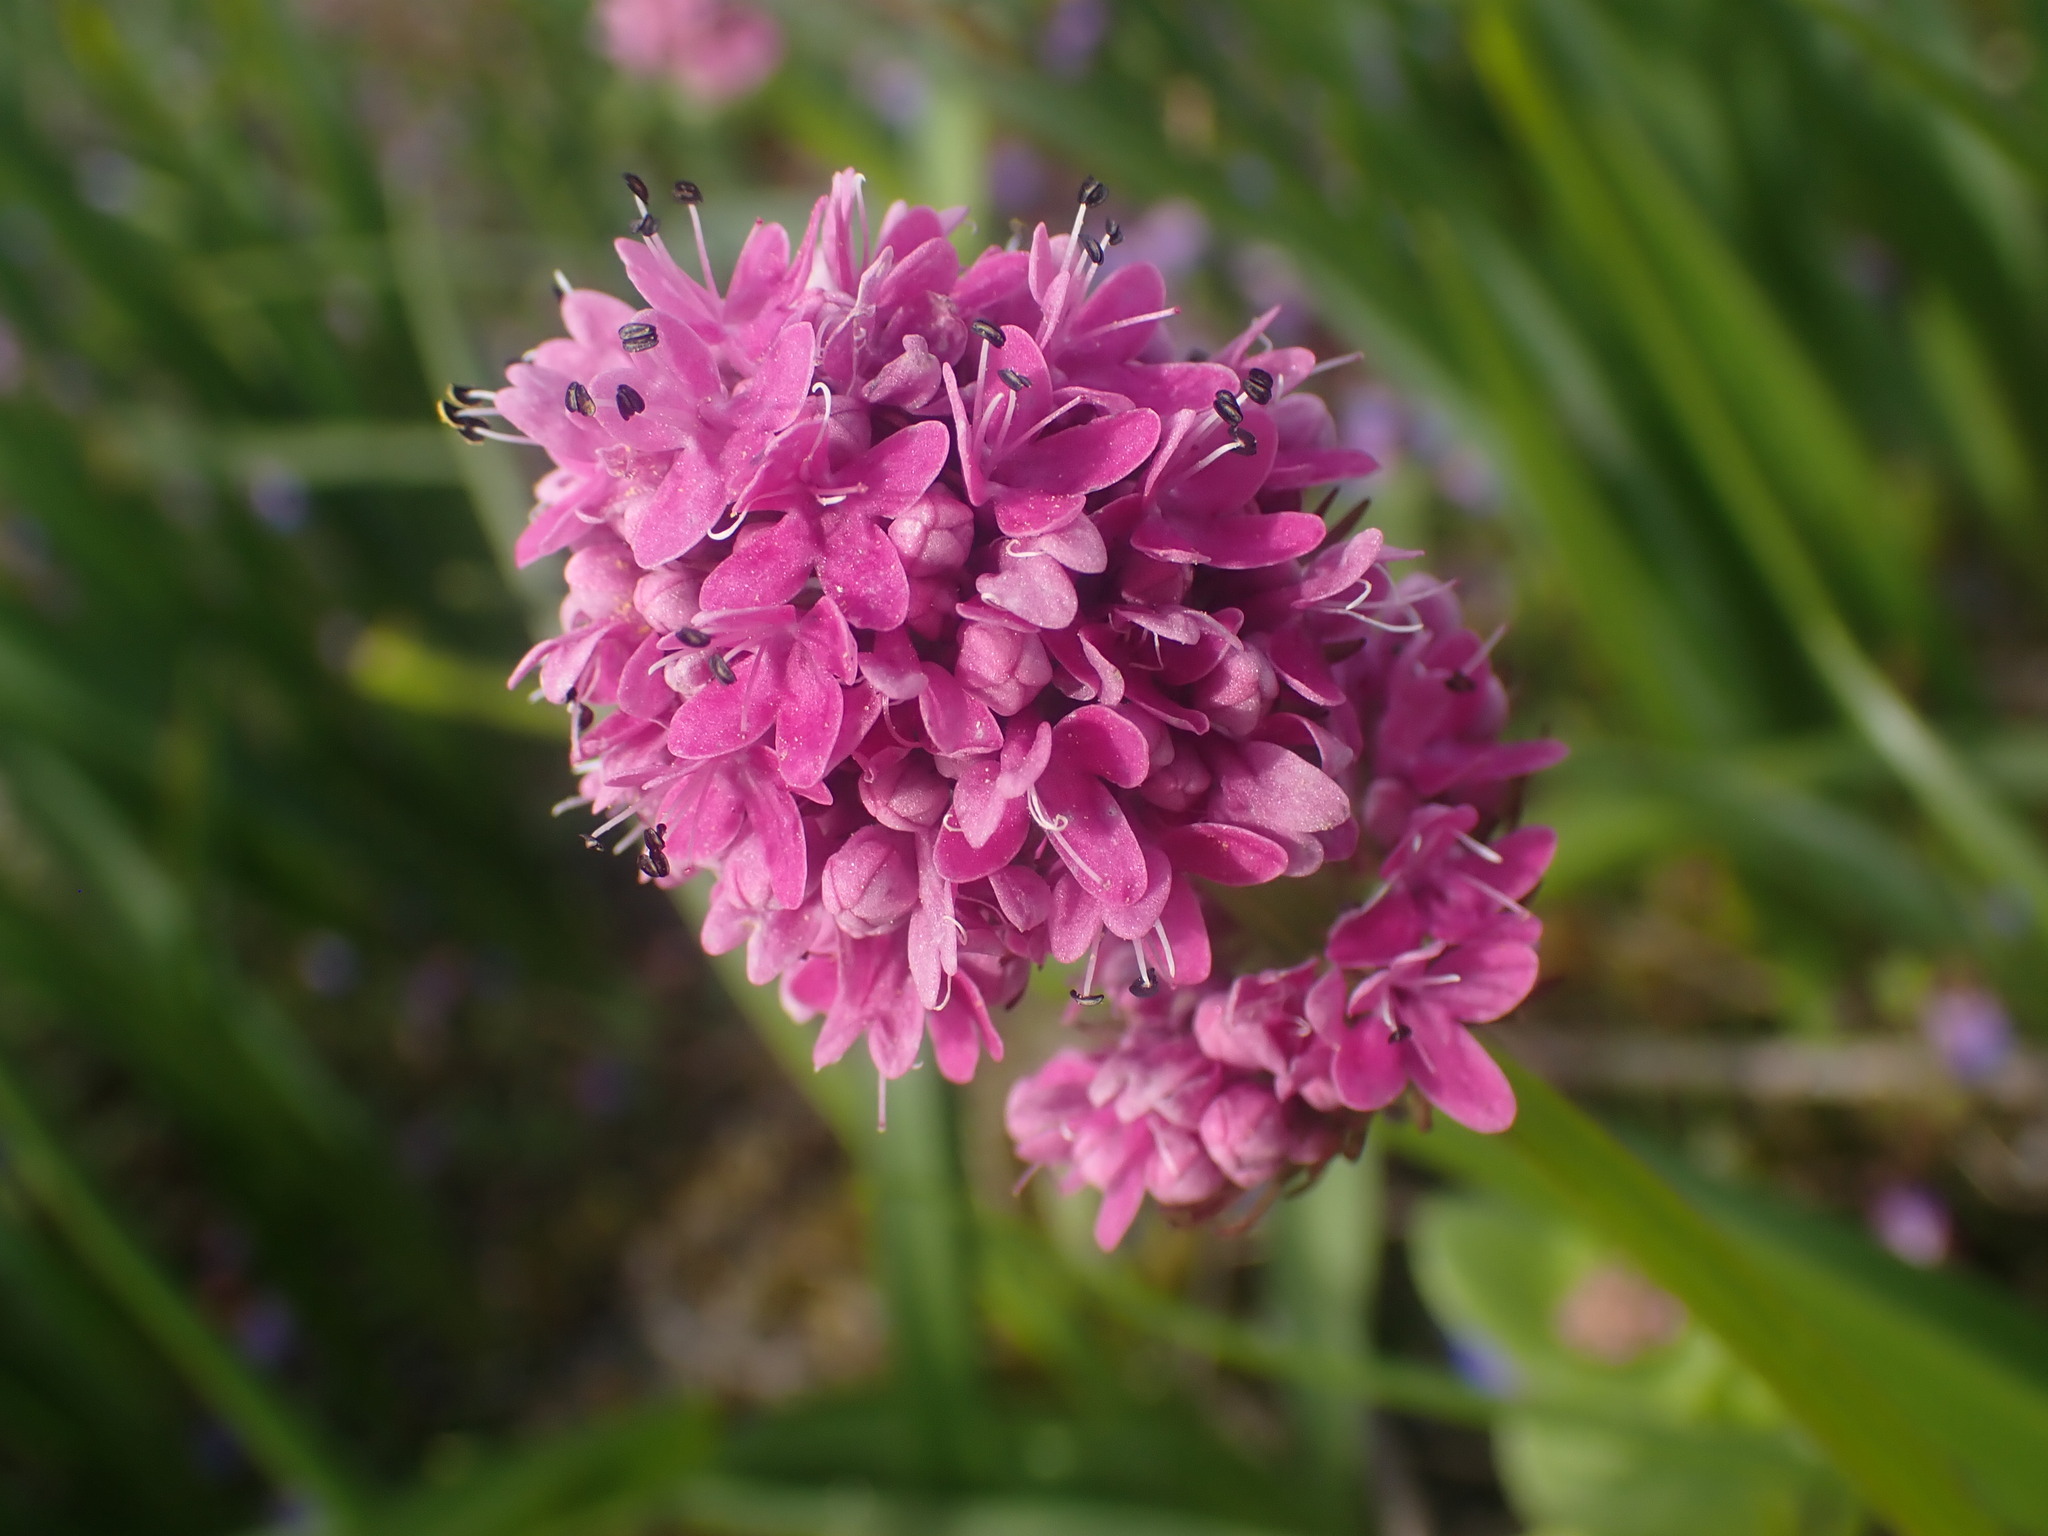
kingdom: Plantae
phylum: Tracheophyta
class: Magnoliopsida
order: Dipsacales
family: Caprifoliaceae
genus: Plectritis
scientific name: Plectritis congesta
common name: Pink plectritis
